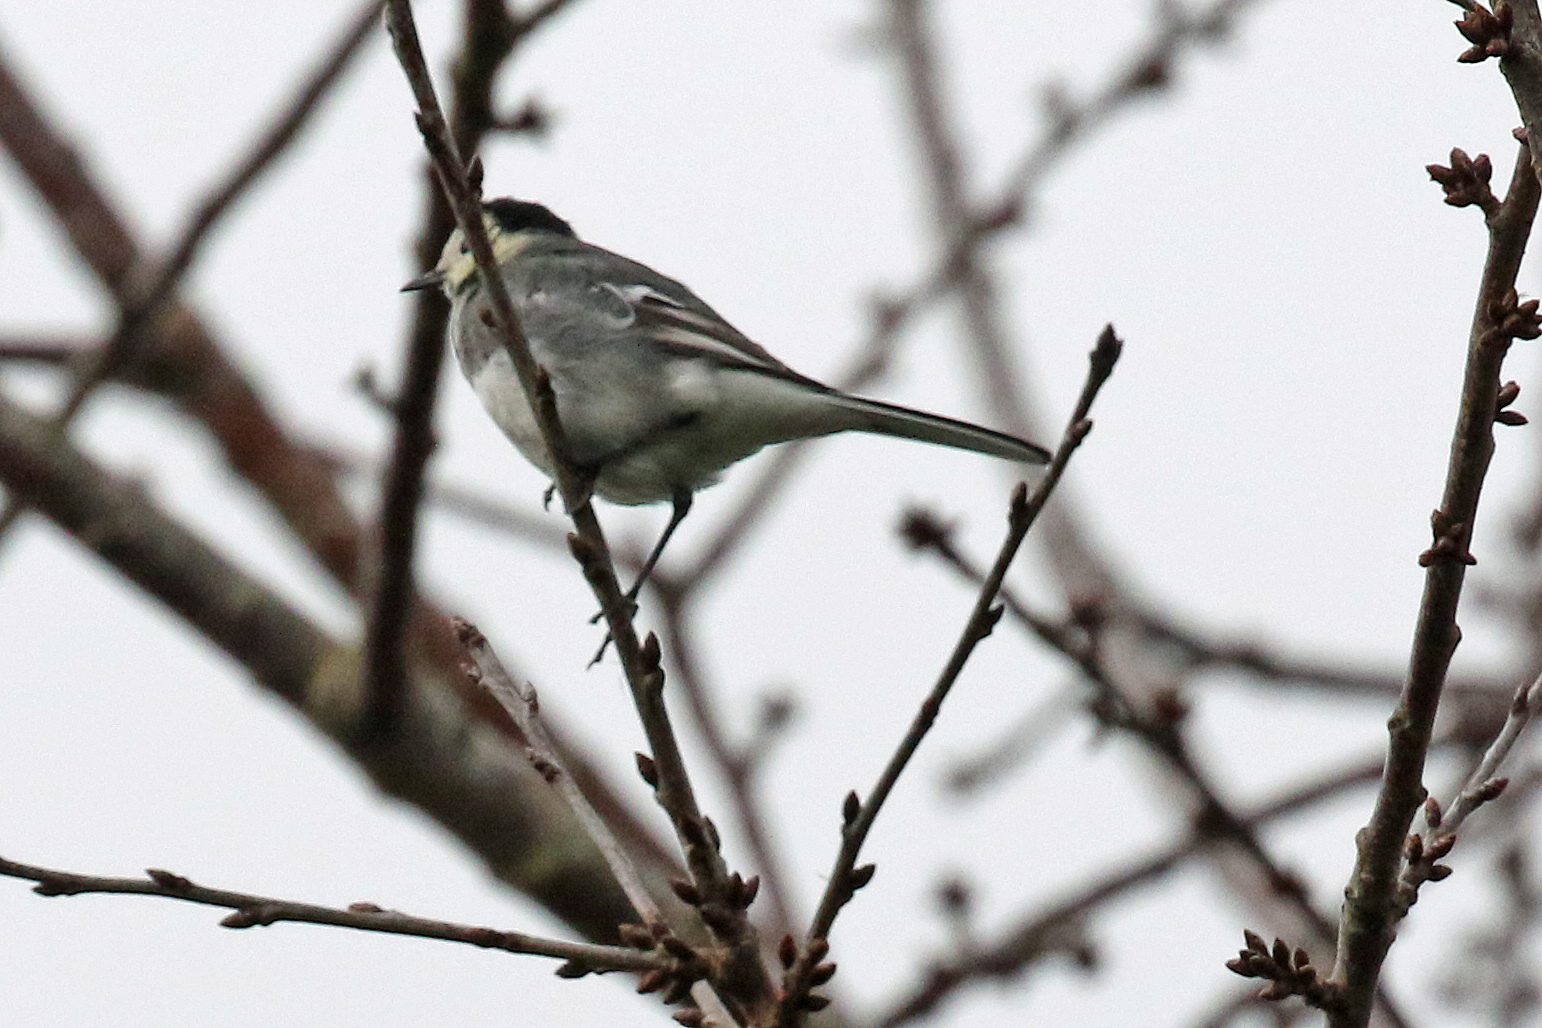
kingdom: Animalia
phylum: Chordata
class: Aves
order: Passeriformes
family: Motacillidae
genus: Motacilla
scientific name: Motacilla alba
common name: White wagtail
